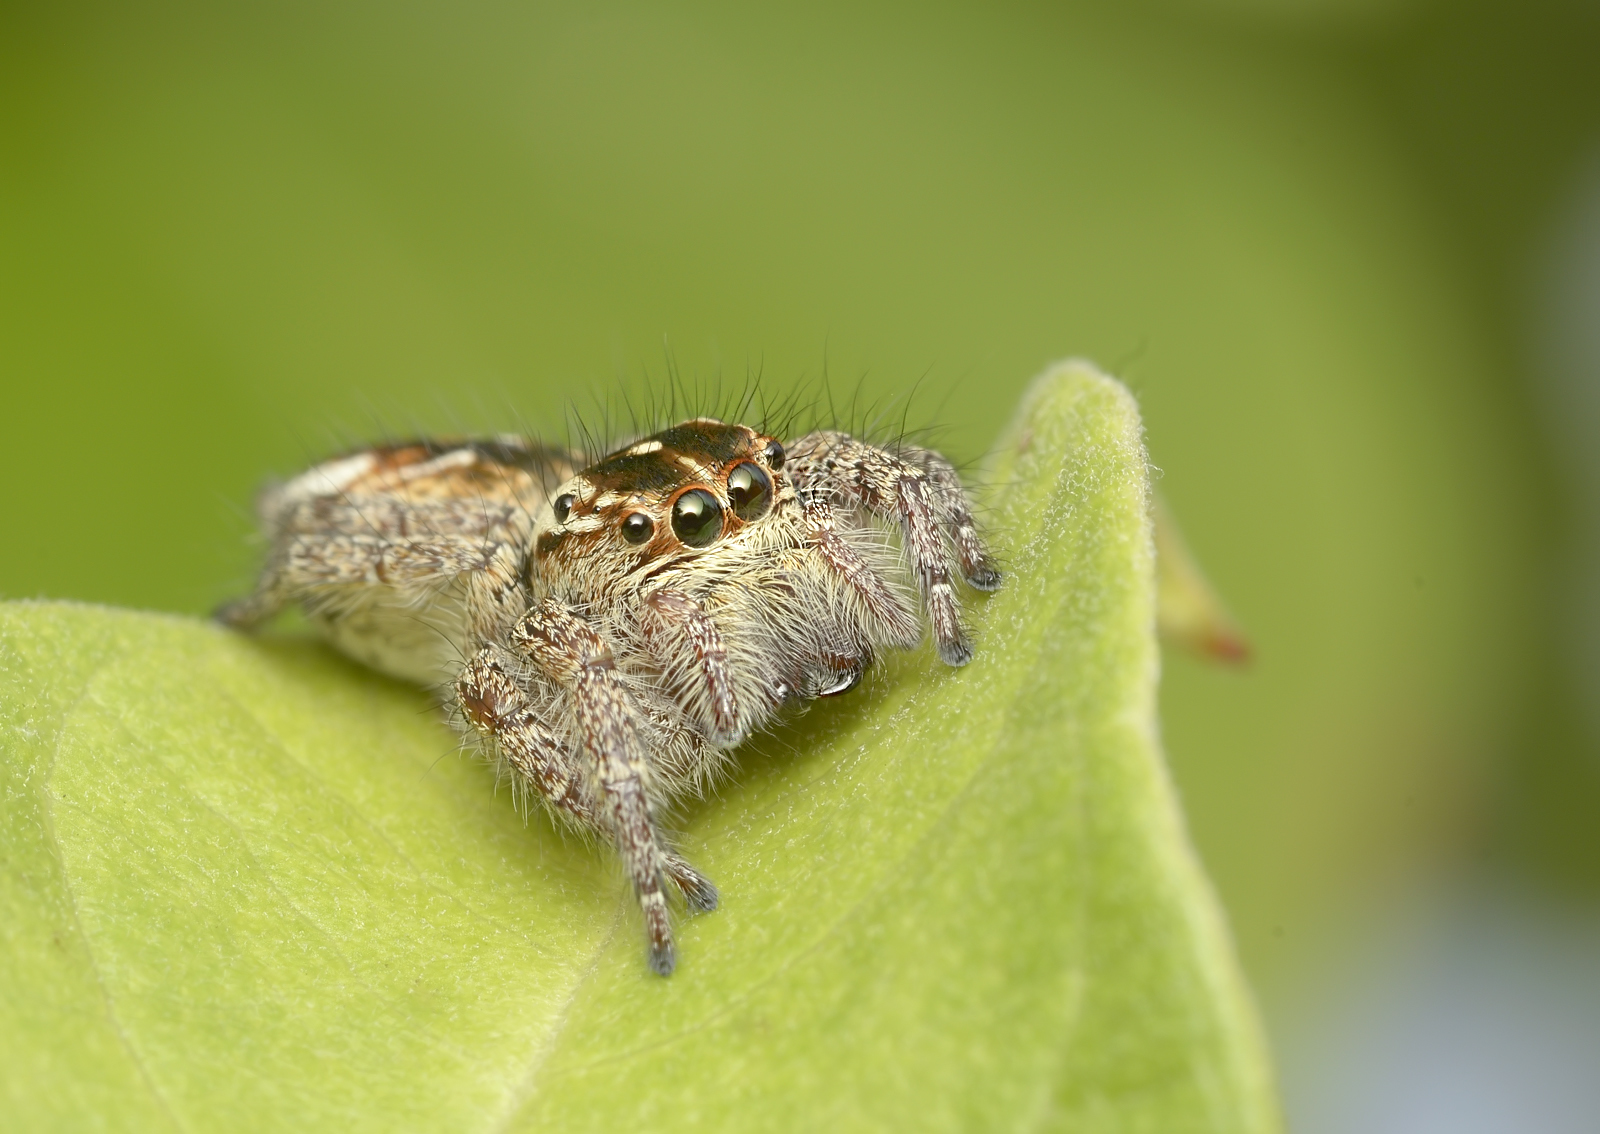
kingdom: Animalia
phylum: Arthropoda
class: Arachnida
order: Araneae
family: Salticidae
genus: Carrhotus
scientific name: Carrhotus viduus
